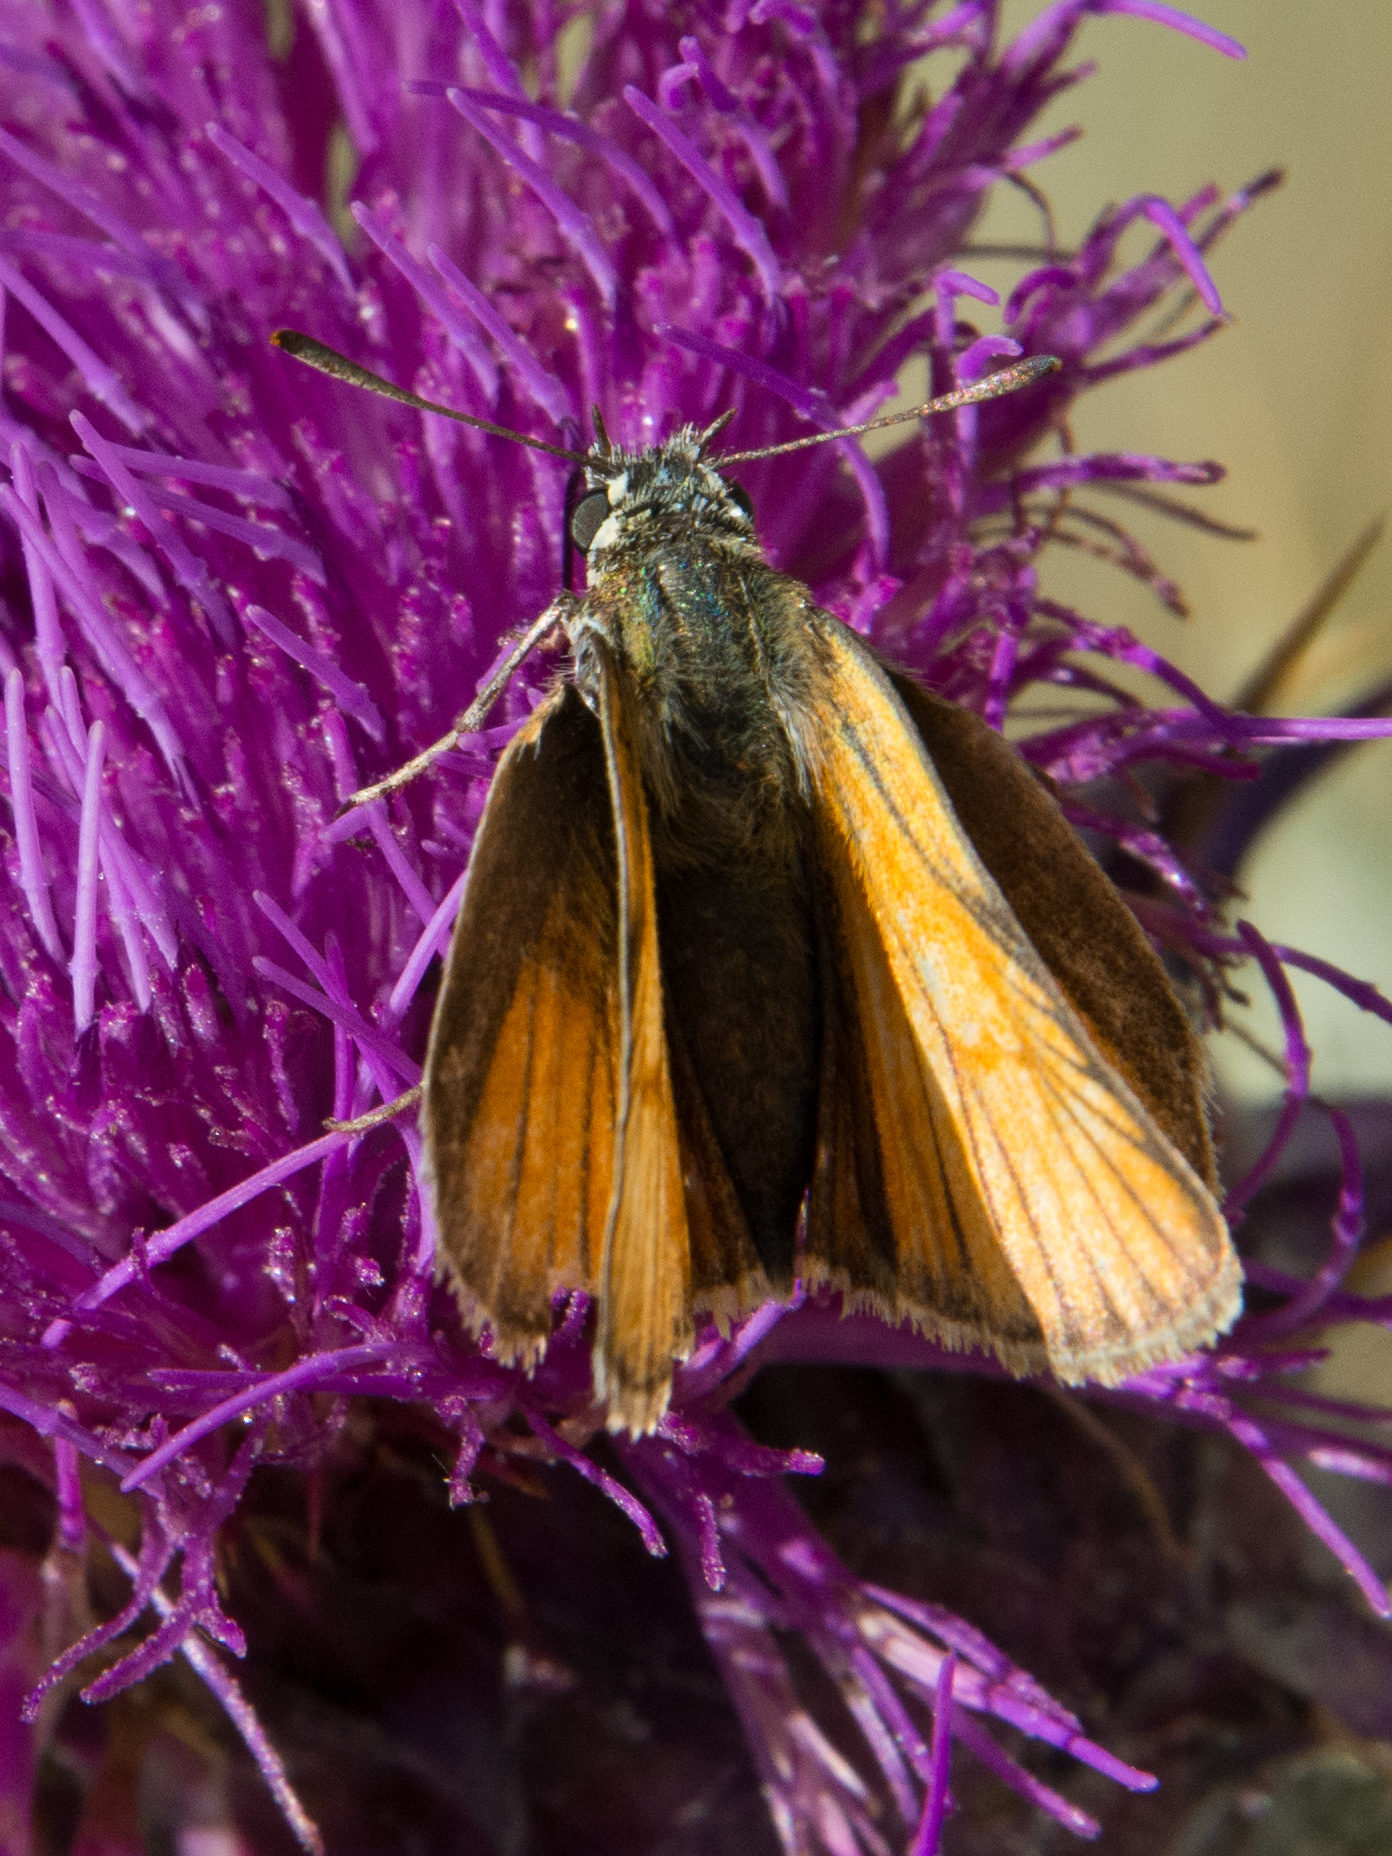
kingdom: Animalia
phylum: Arthropoda
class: Insecta
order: Lepidoptera
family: Hesperiidae
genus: Thymelicus
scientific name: Thymelicus acteon
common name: Lulworth skipper
